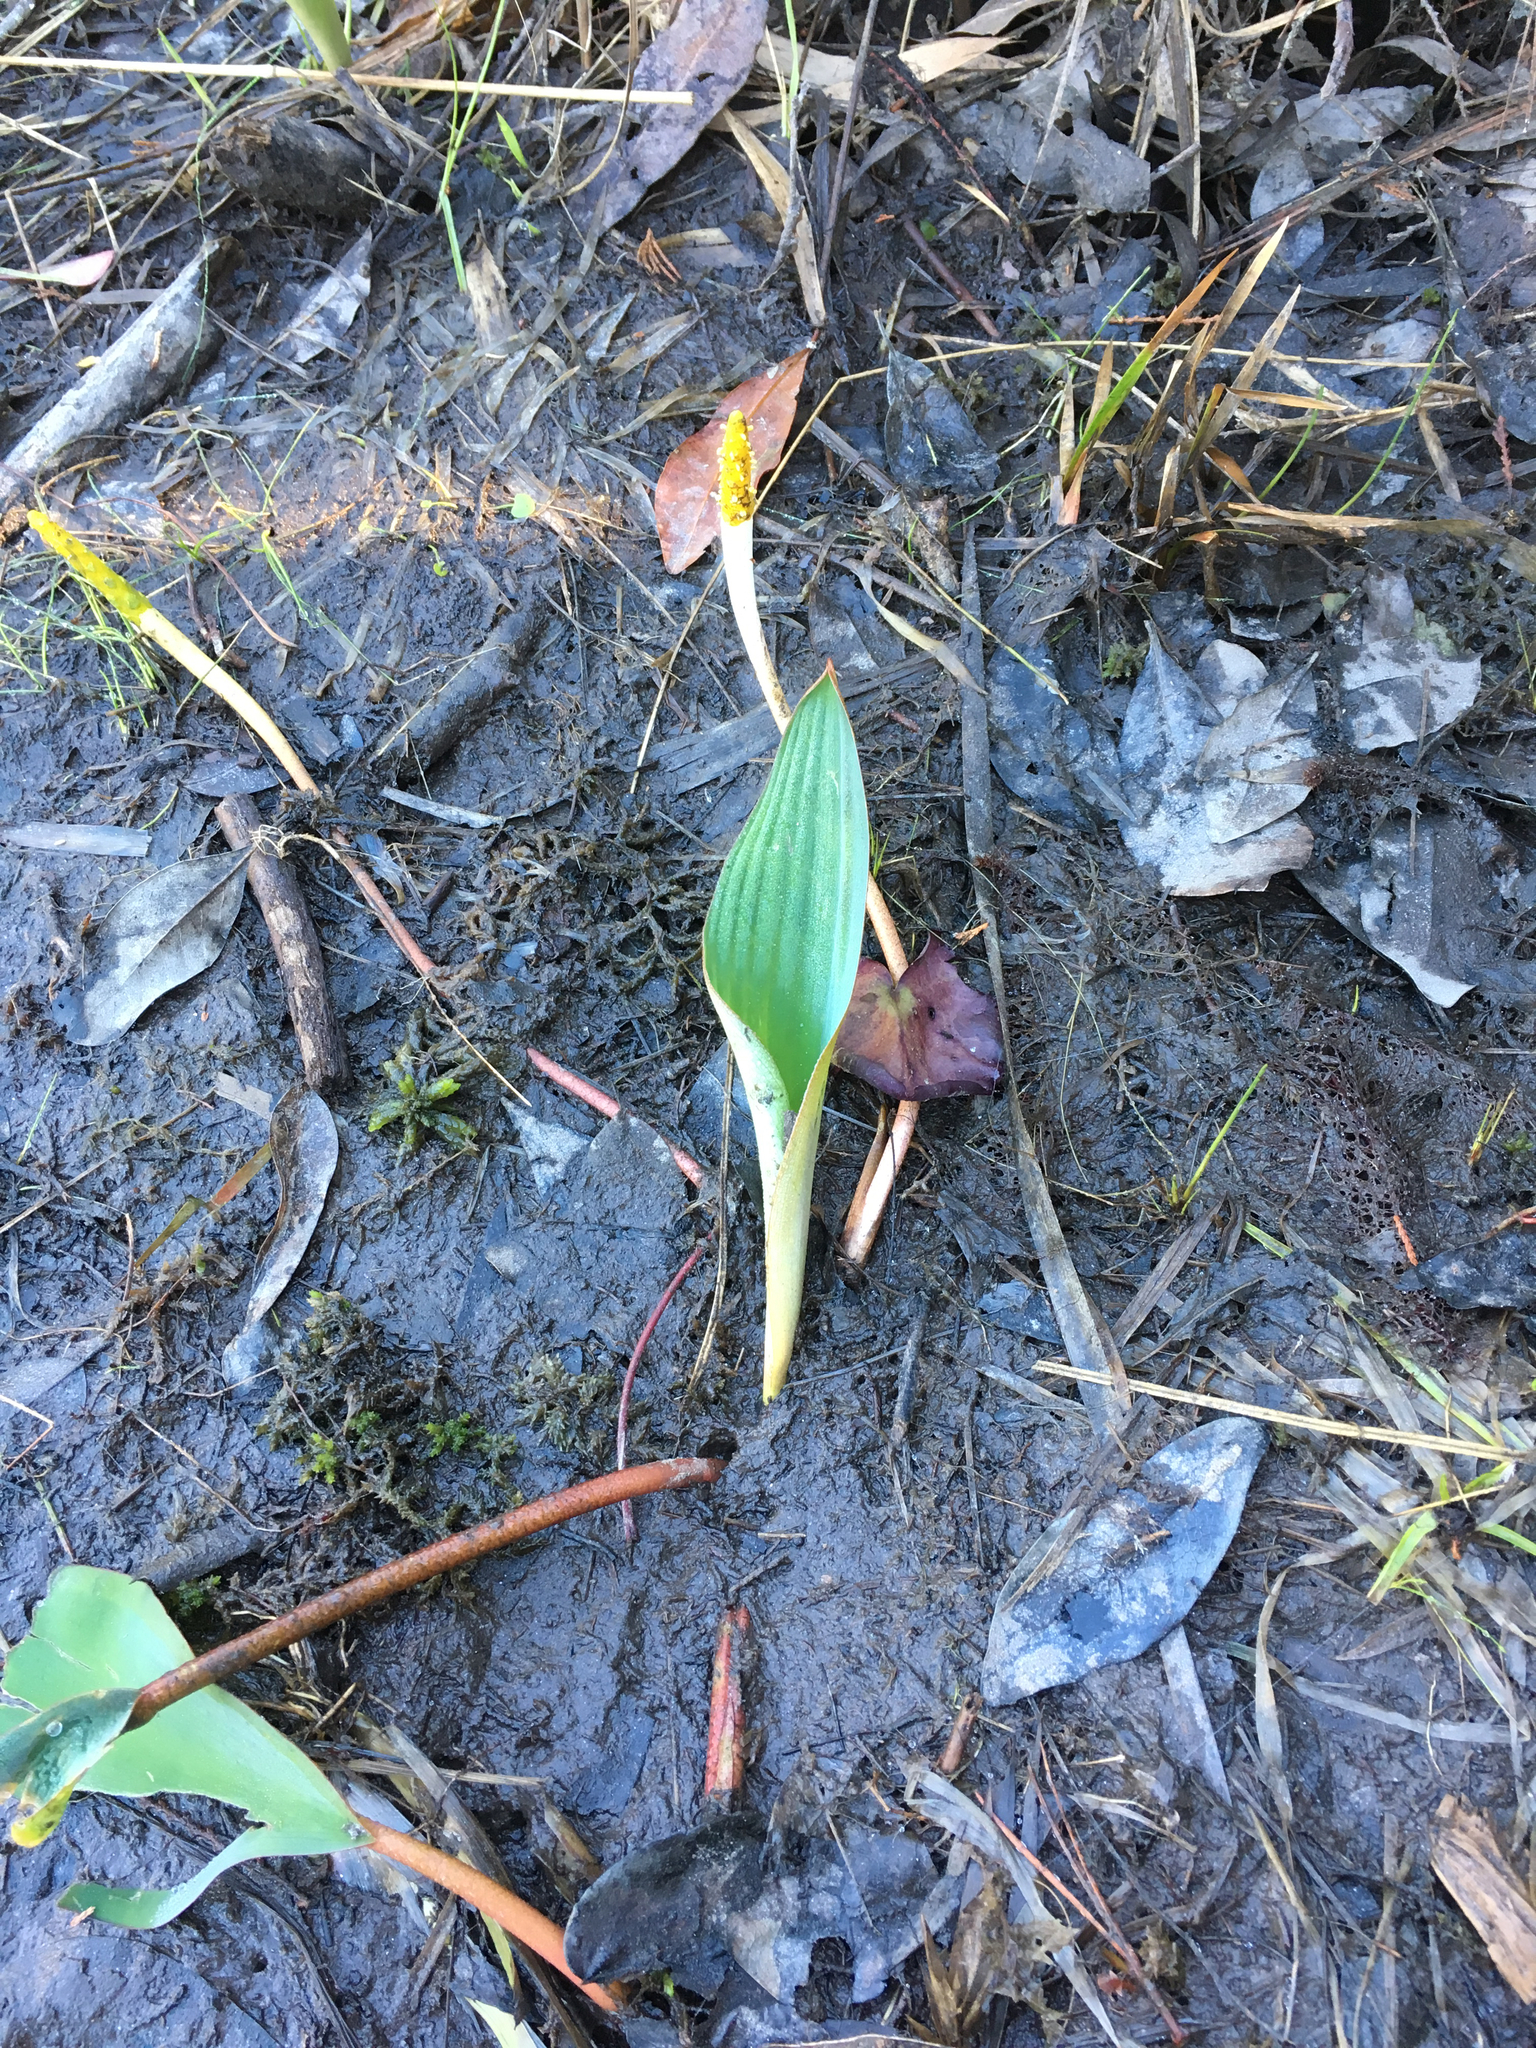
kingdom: Plantae
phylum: Tracheophyta
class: Liliopsida
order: Alismatales
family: Araceae
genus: Orontium
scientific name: Orontium aquaticum
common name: Golden-club
